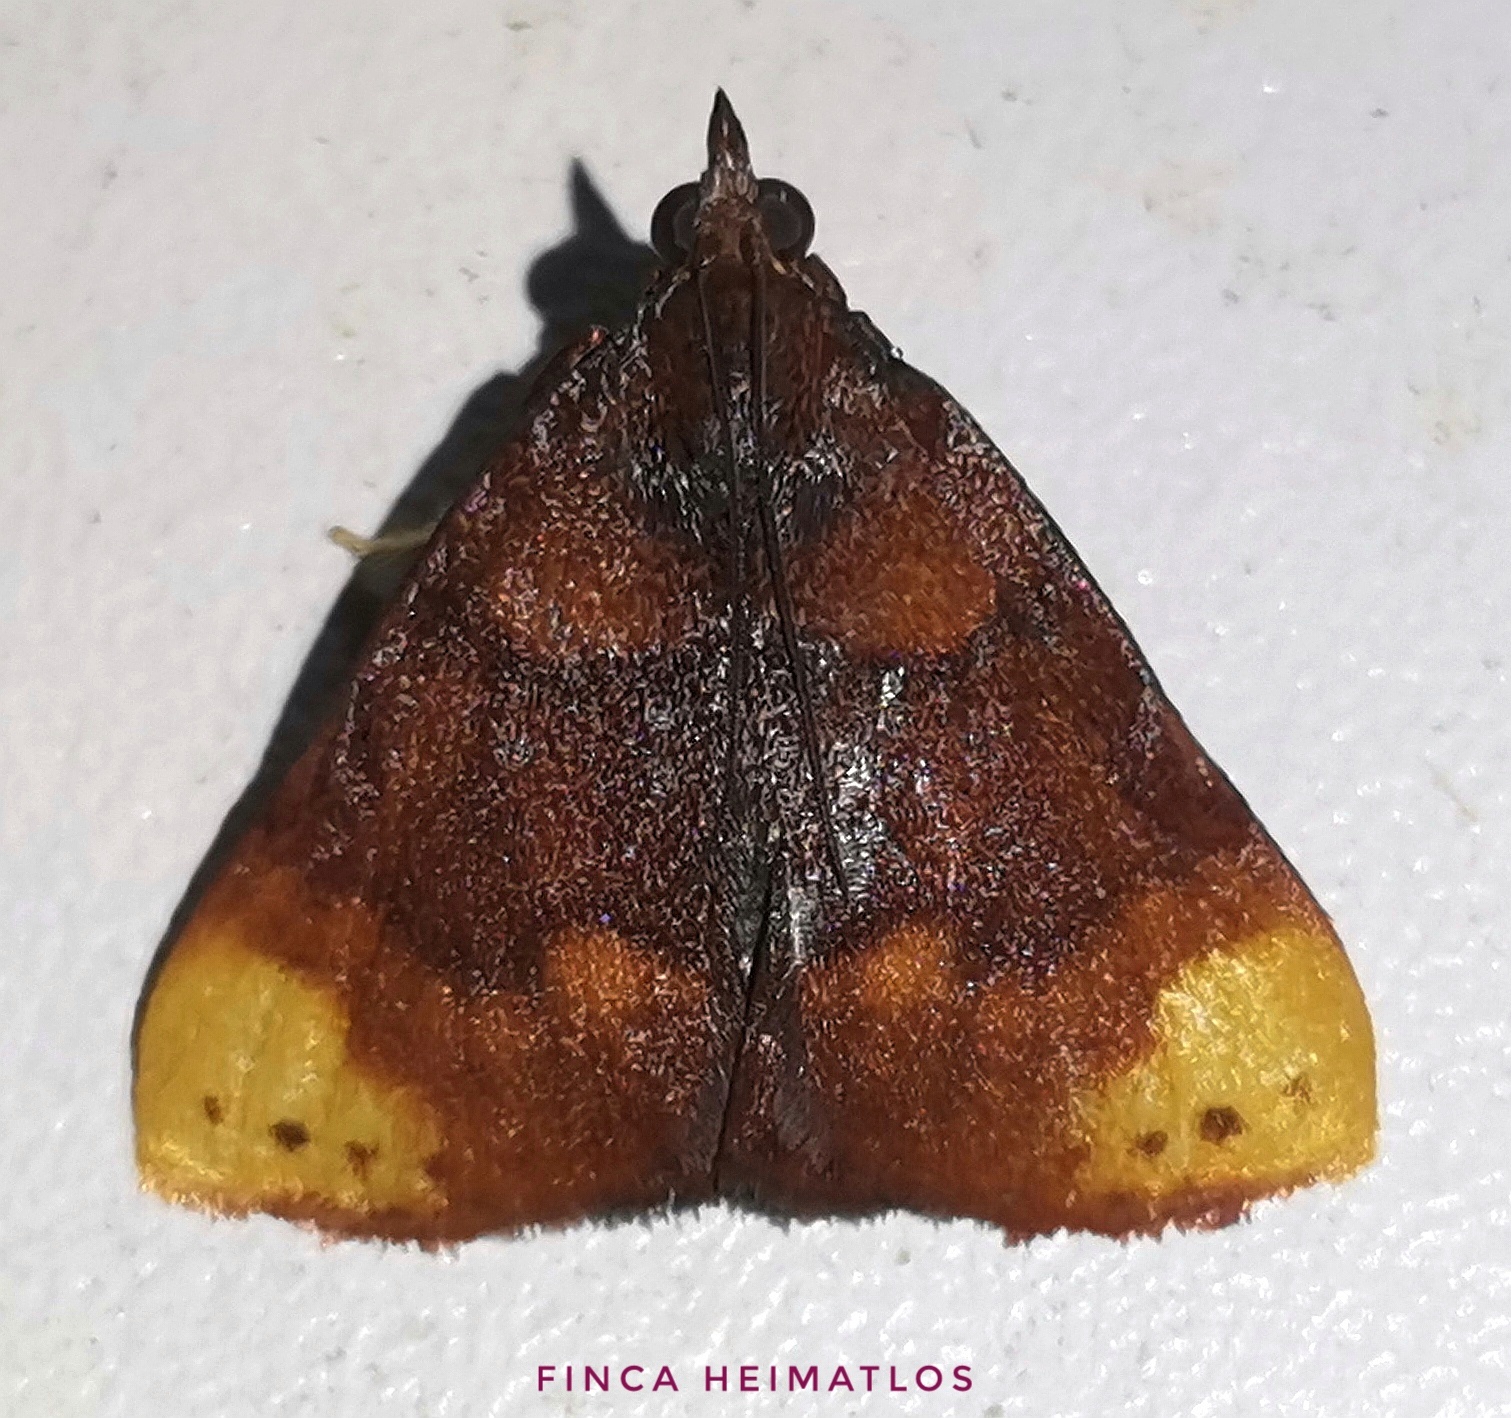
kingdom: Animalia
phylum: Arthropoda
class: Insecta
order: Lepidoptera
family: Pyralidae
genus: Paramacna
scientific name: Paramacna nattereri
